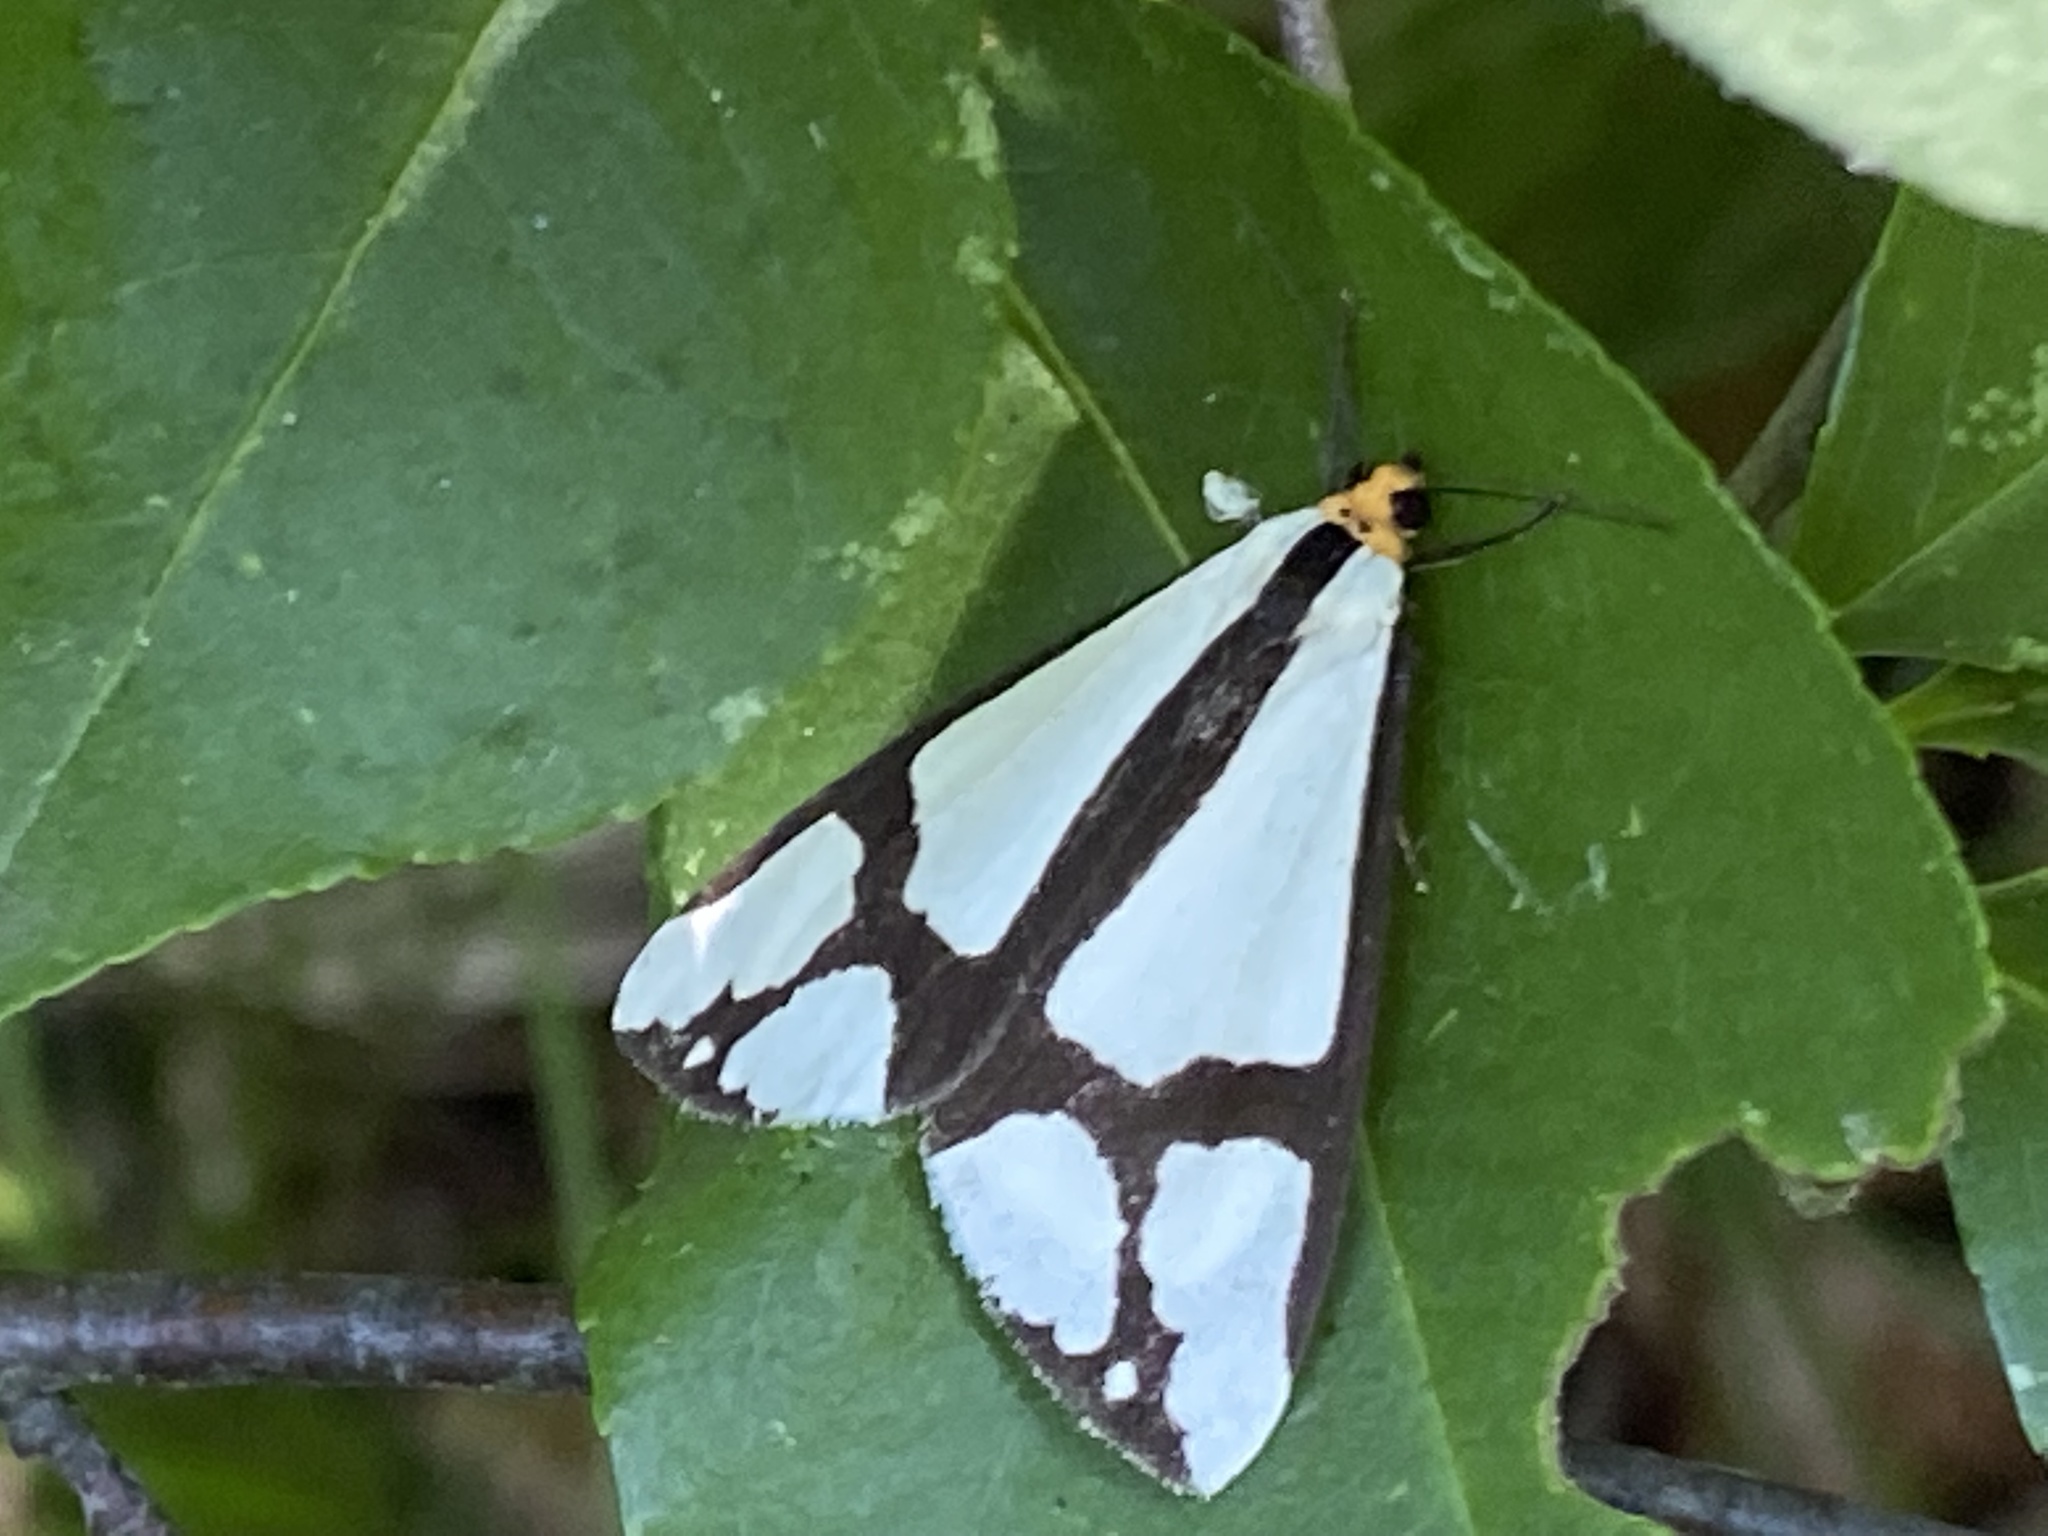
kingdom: Animalia
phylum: Arthropoda
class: Insecta
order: Lepidoptera
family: Erebidae
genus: Haploa
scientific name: Haploa contigua
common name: Neighbor moth
